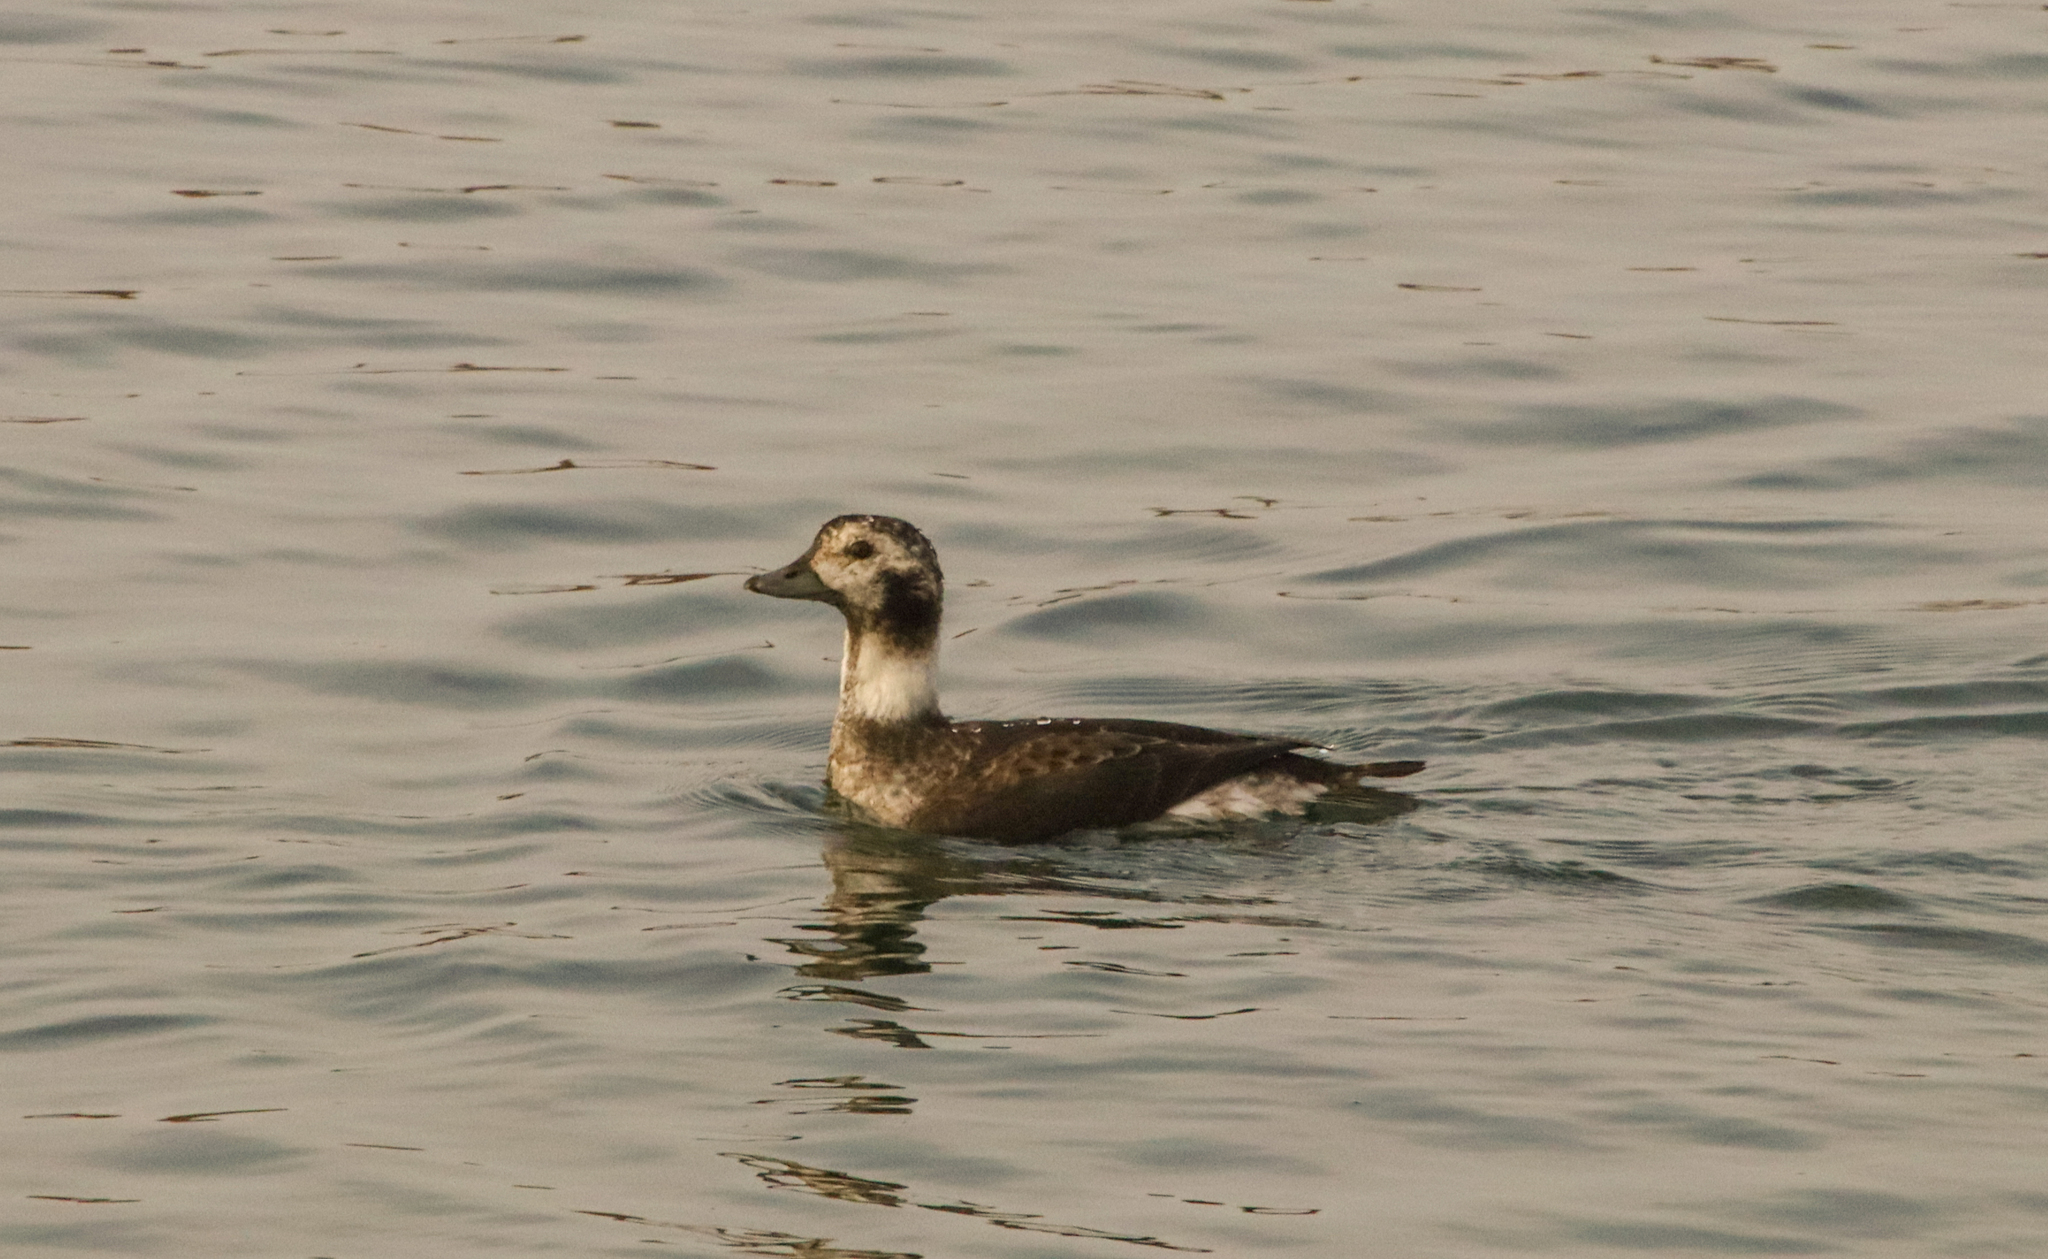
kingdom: Animalia
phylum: Chordata
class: Aves
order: Anseriformes
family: Anatidae
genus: Clangula
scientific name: Clangula hyemalis
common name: Long-tailed duck
